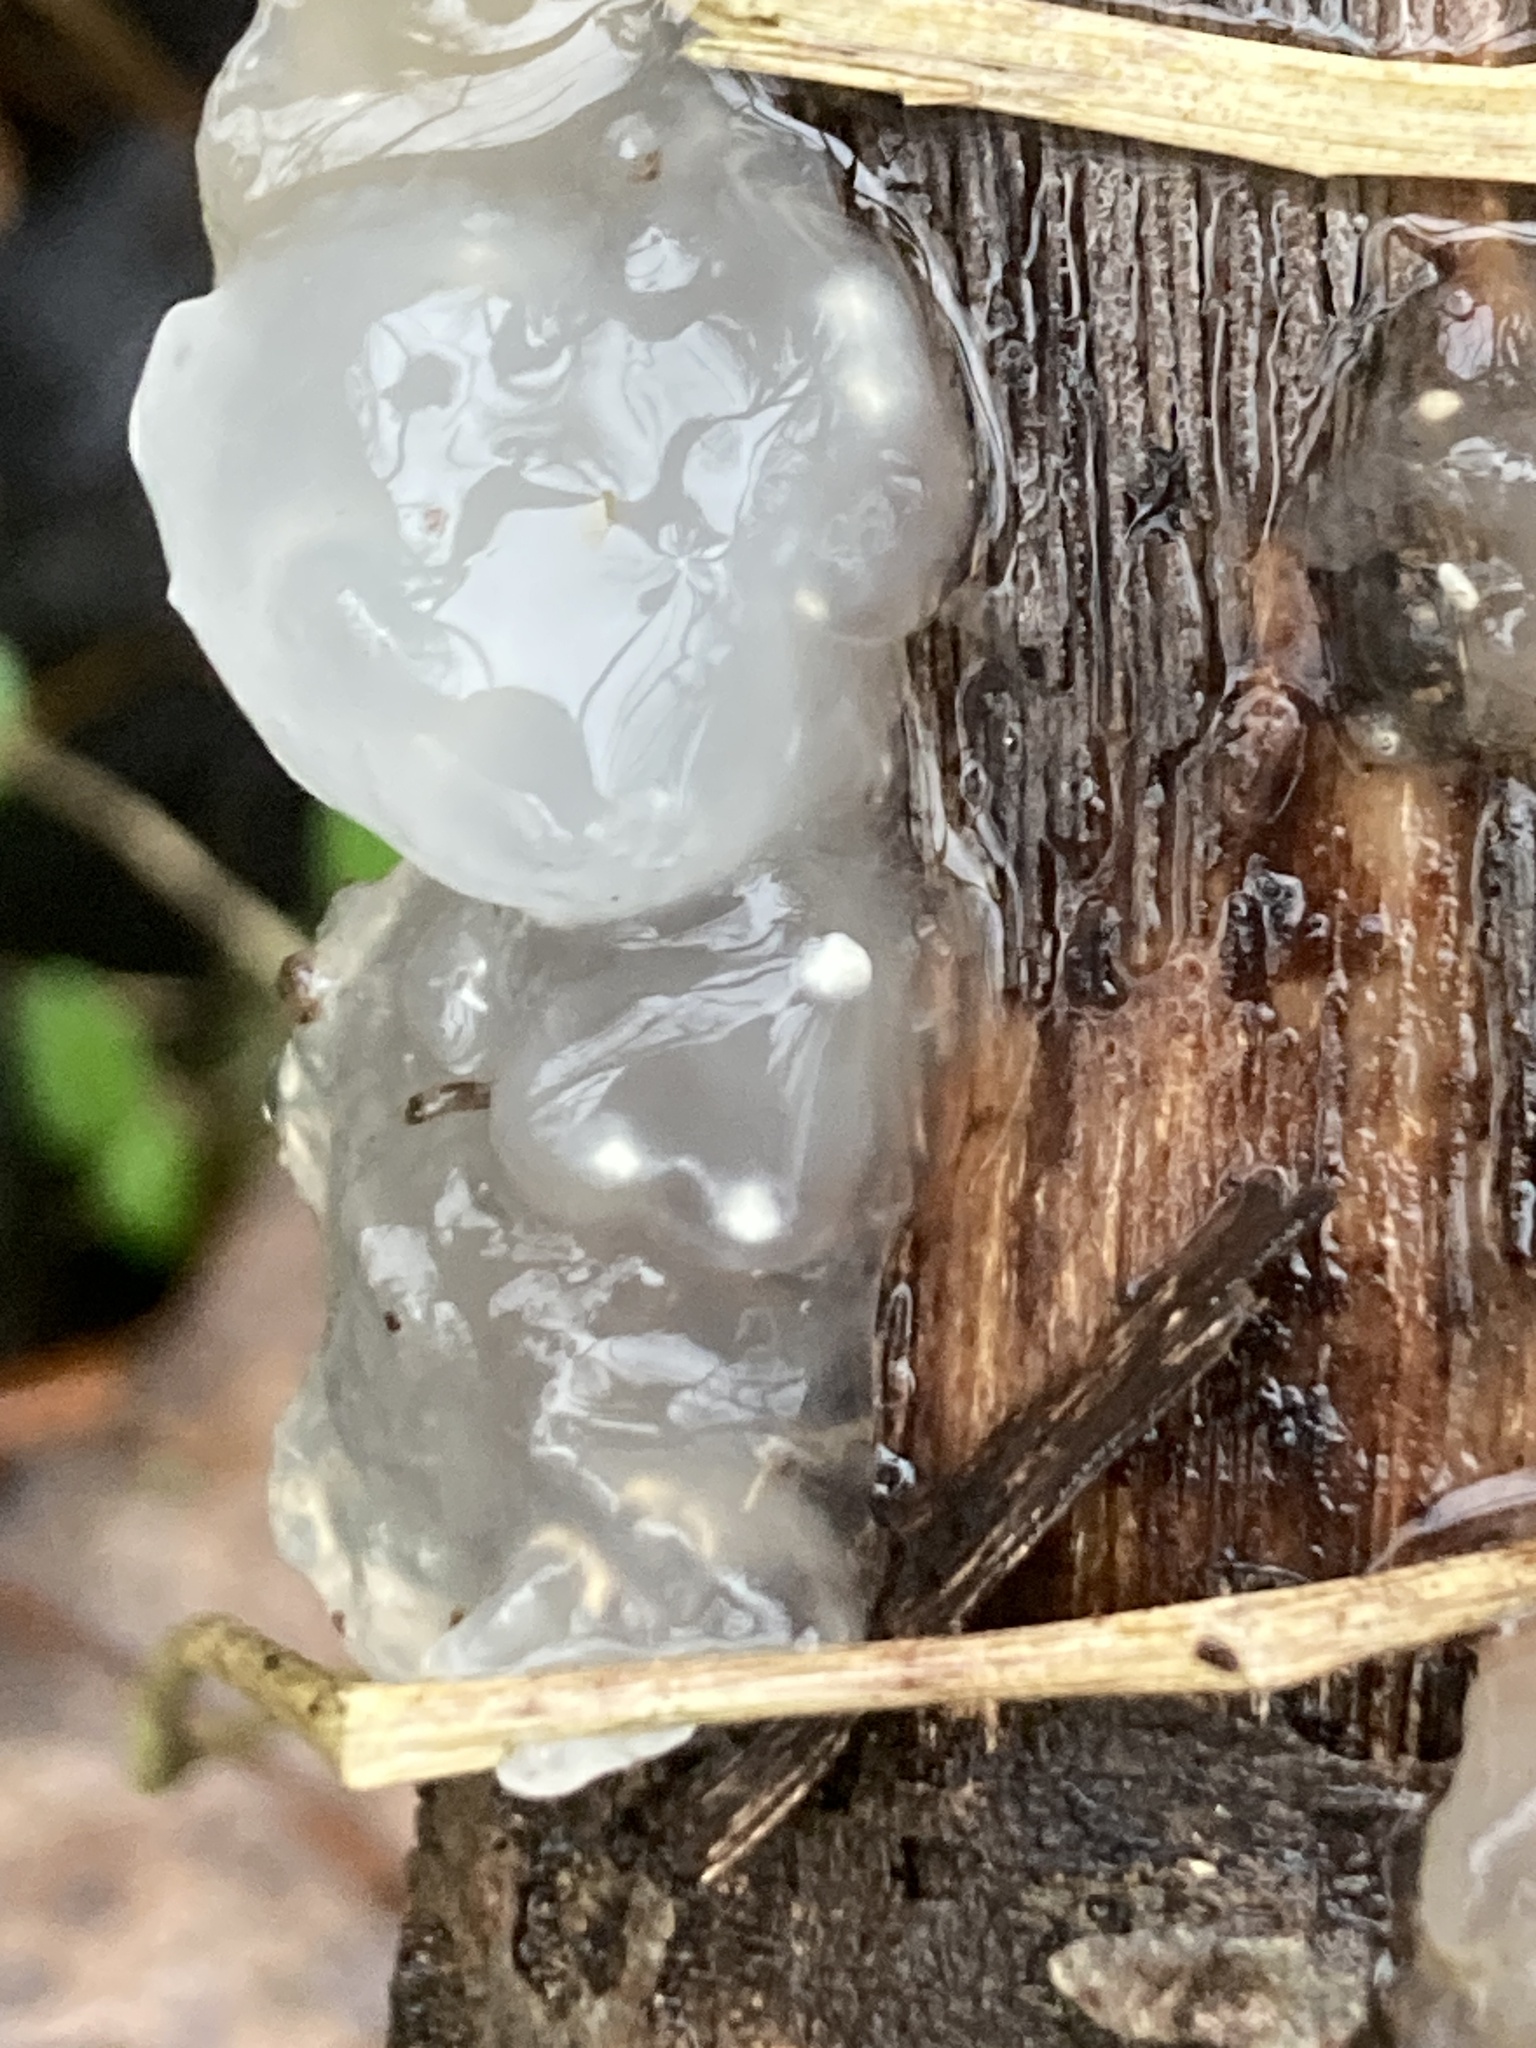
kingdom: Fungi
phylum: Basidiomycota
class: Agaricomycetes
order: Auriculariales
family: Hyaloriaceae
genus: Myxarium
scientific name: Myxarium nucleatum
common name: Crystal brain fungus
